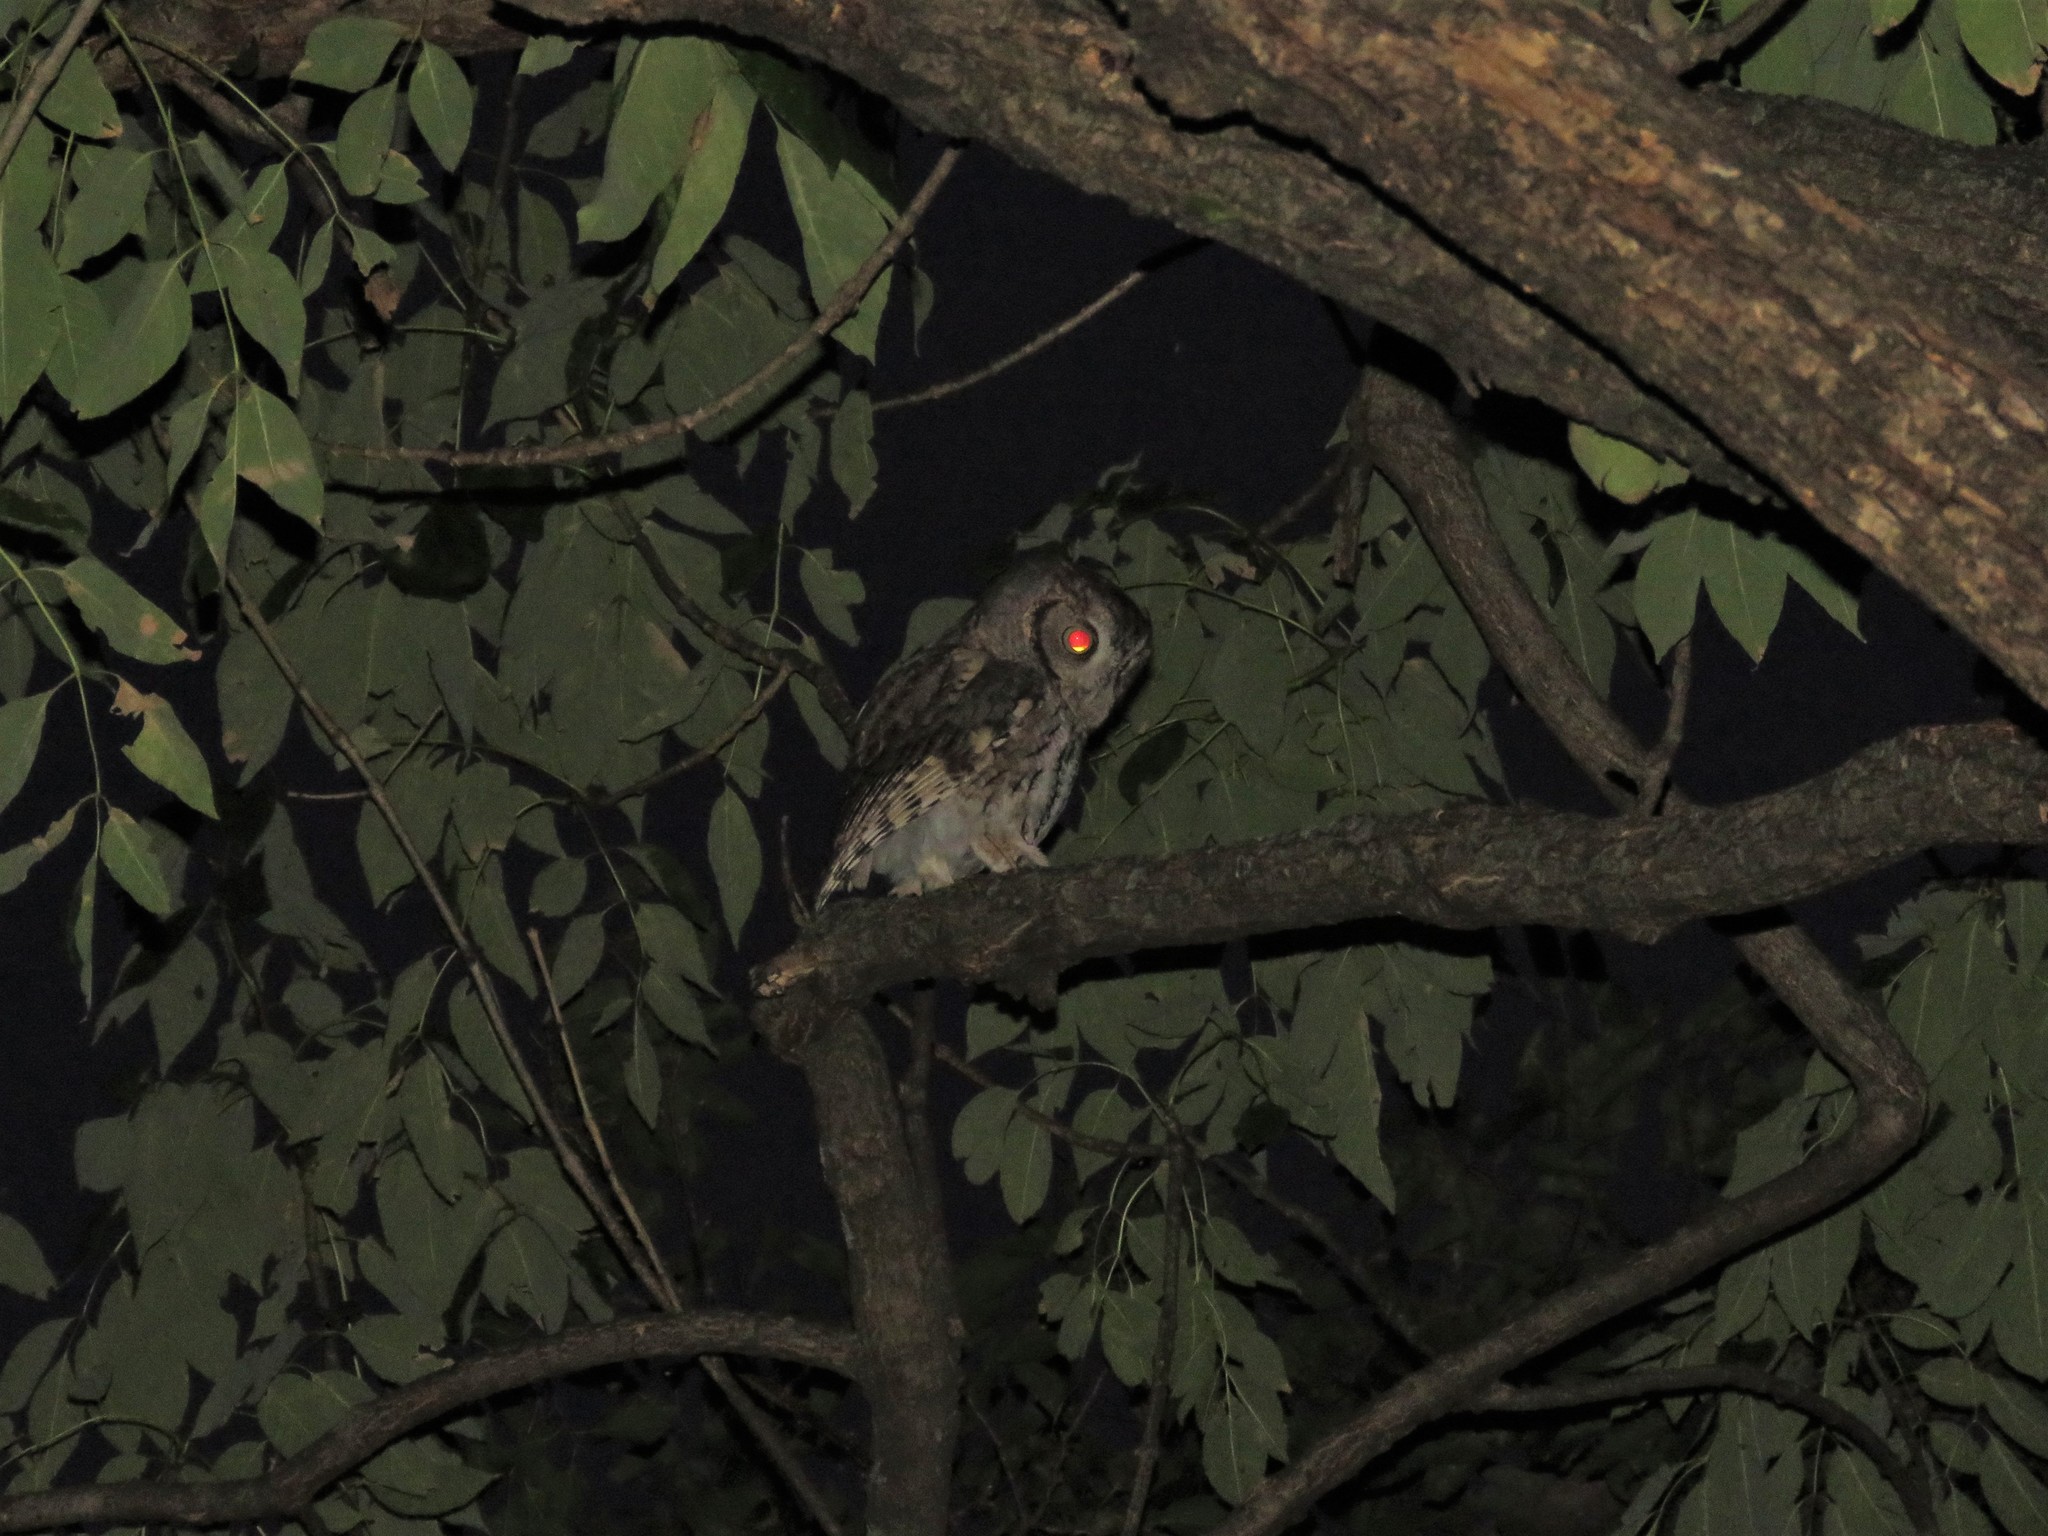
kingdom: Animalia
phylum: Chordata
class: Aves
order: Strigiformes
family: Strigidae
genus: Megascops
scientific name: Megascops asio
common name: Eastern screech-owl
